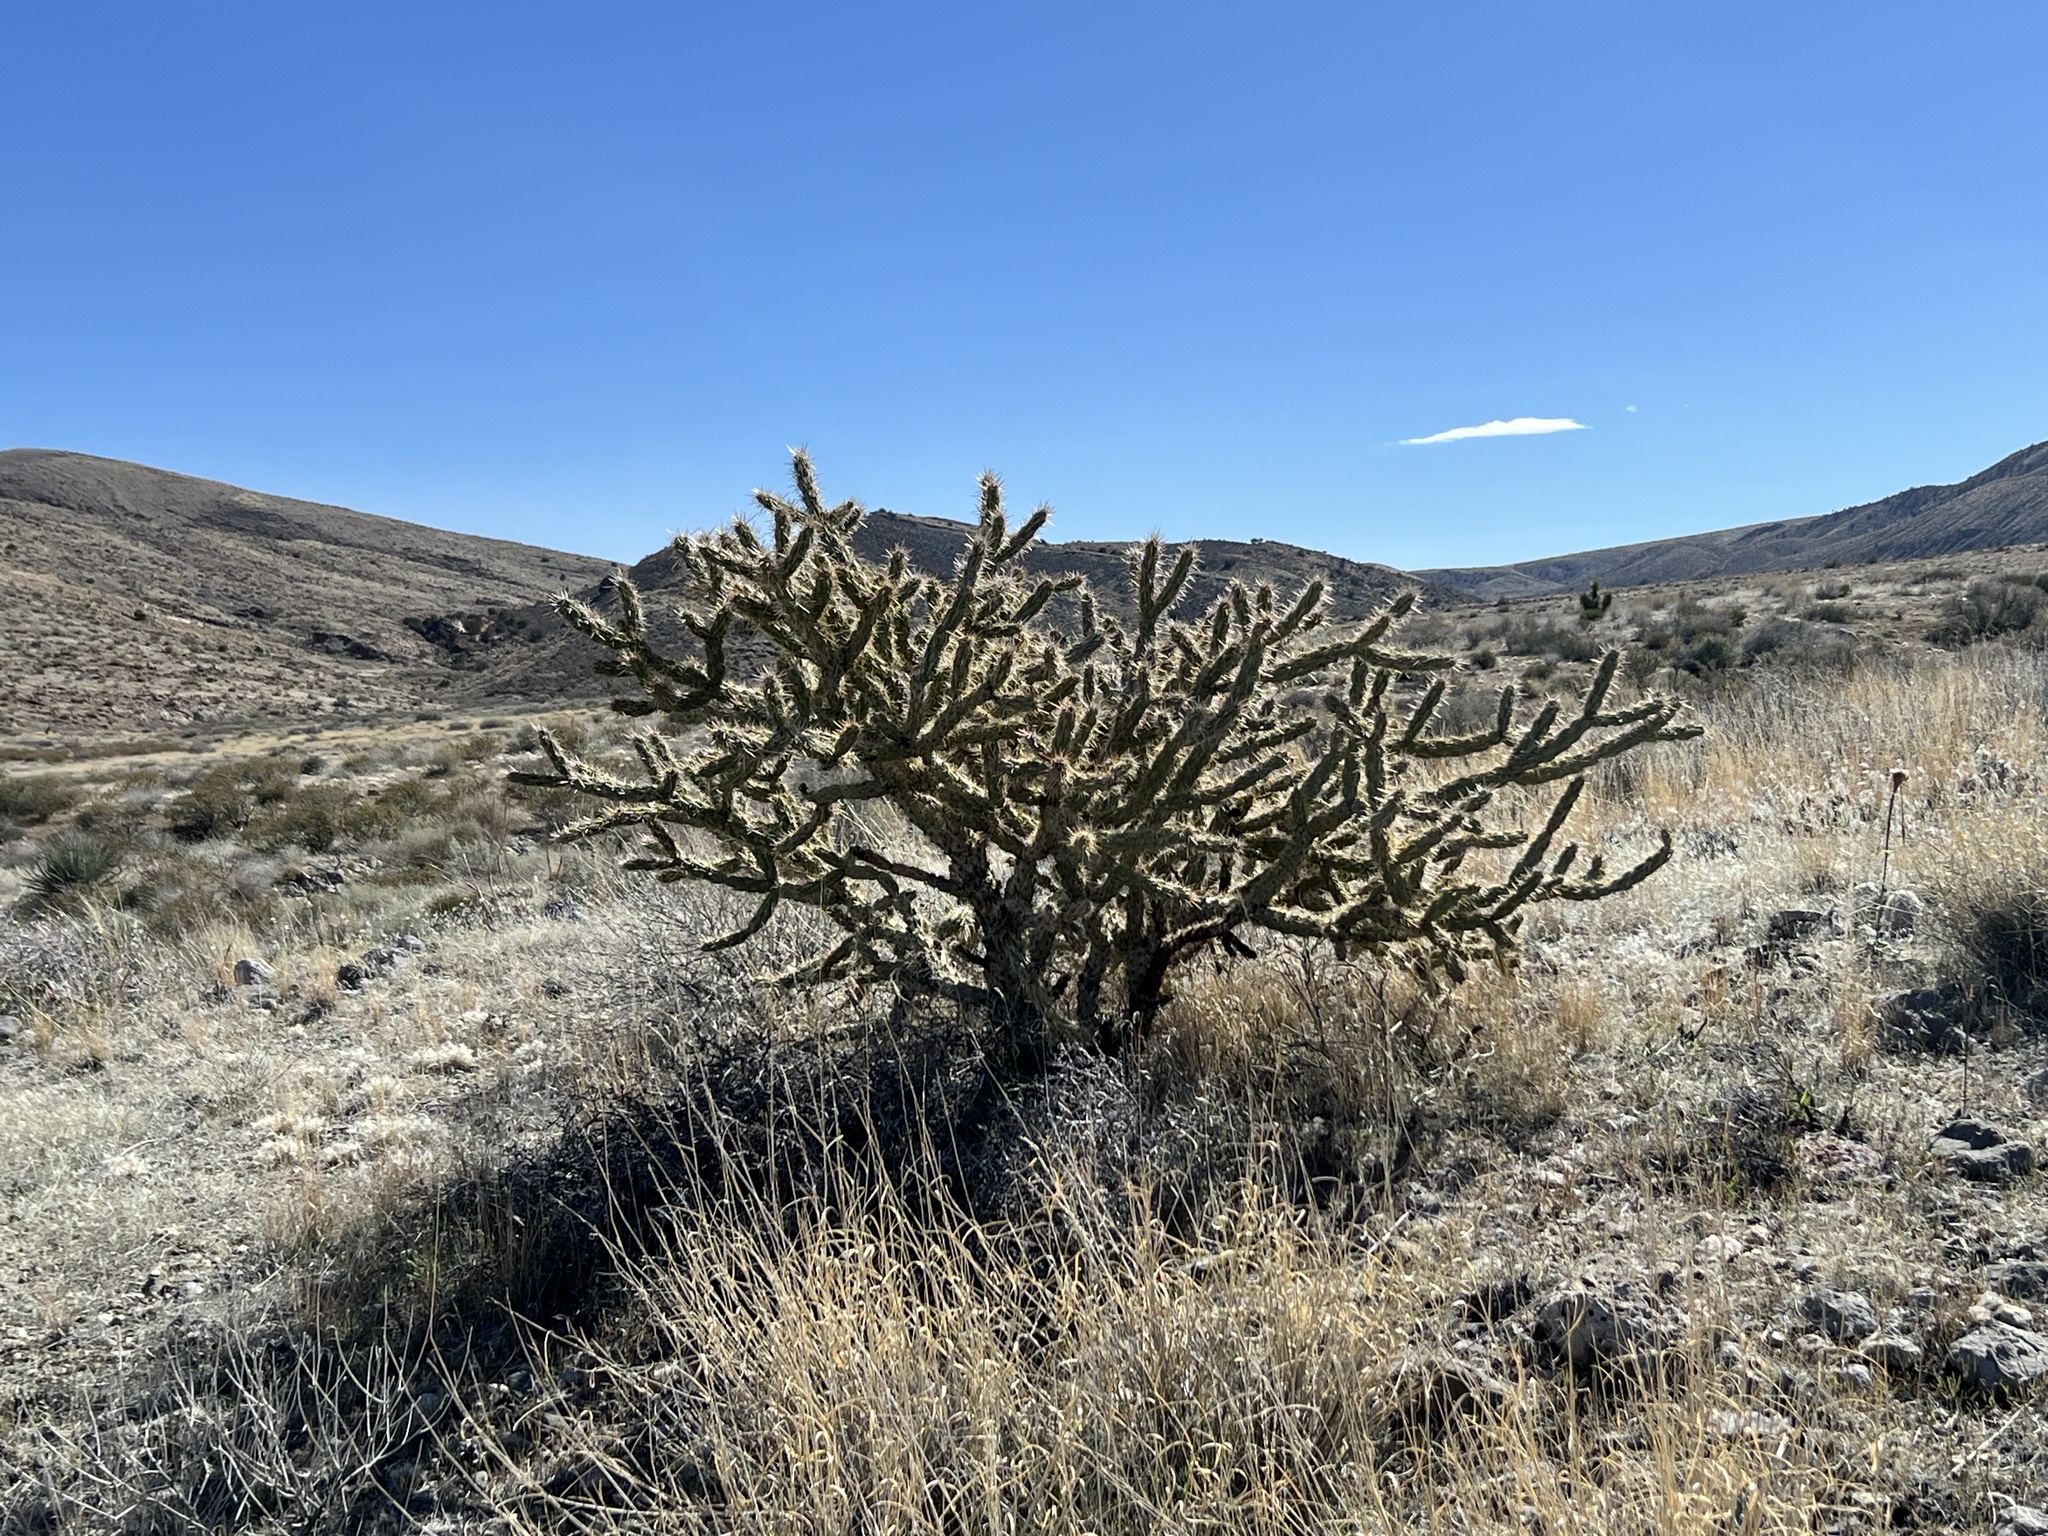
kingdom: Plantae
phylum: Tracheophyta
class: Magnoliopsida
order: Caryophyllales
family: Cactaceae
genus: Cylindropuntia
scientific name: Cylindropuntia acanthocarpa
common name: Buckhorn cholla
